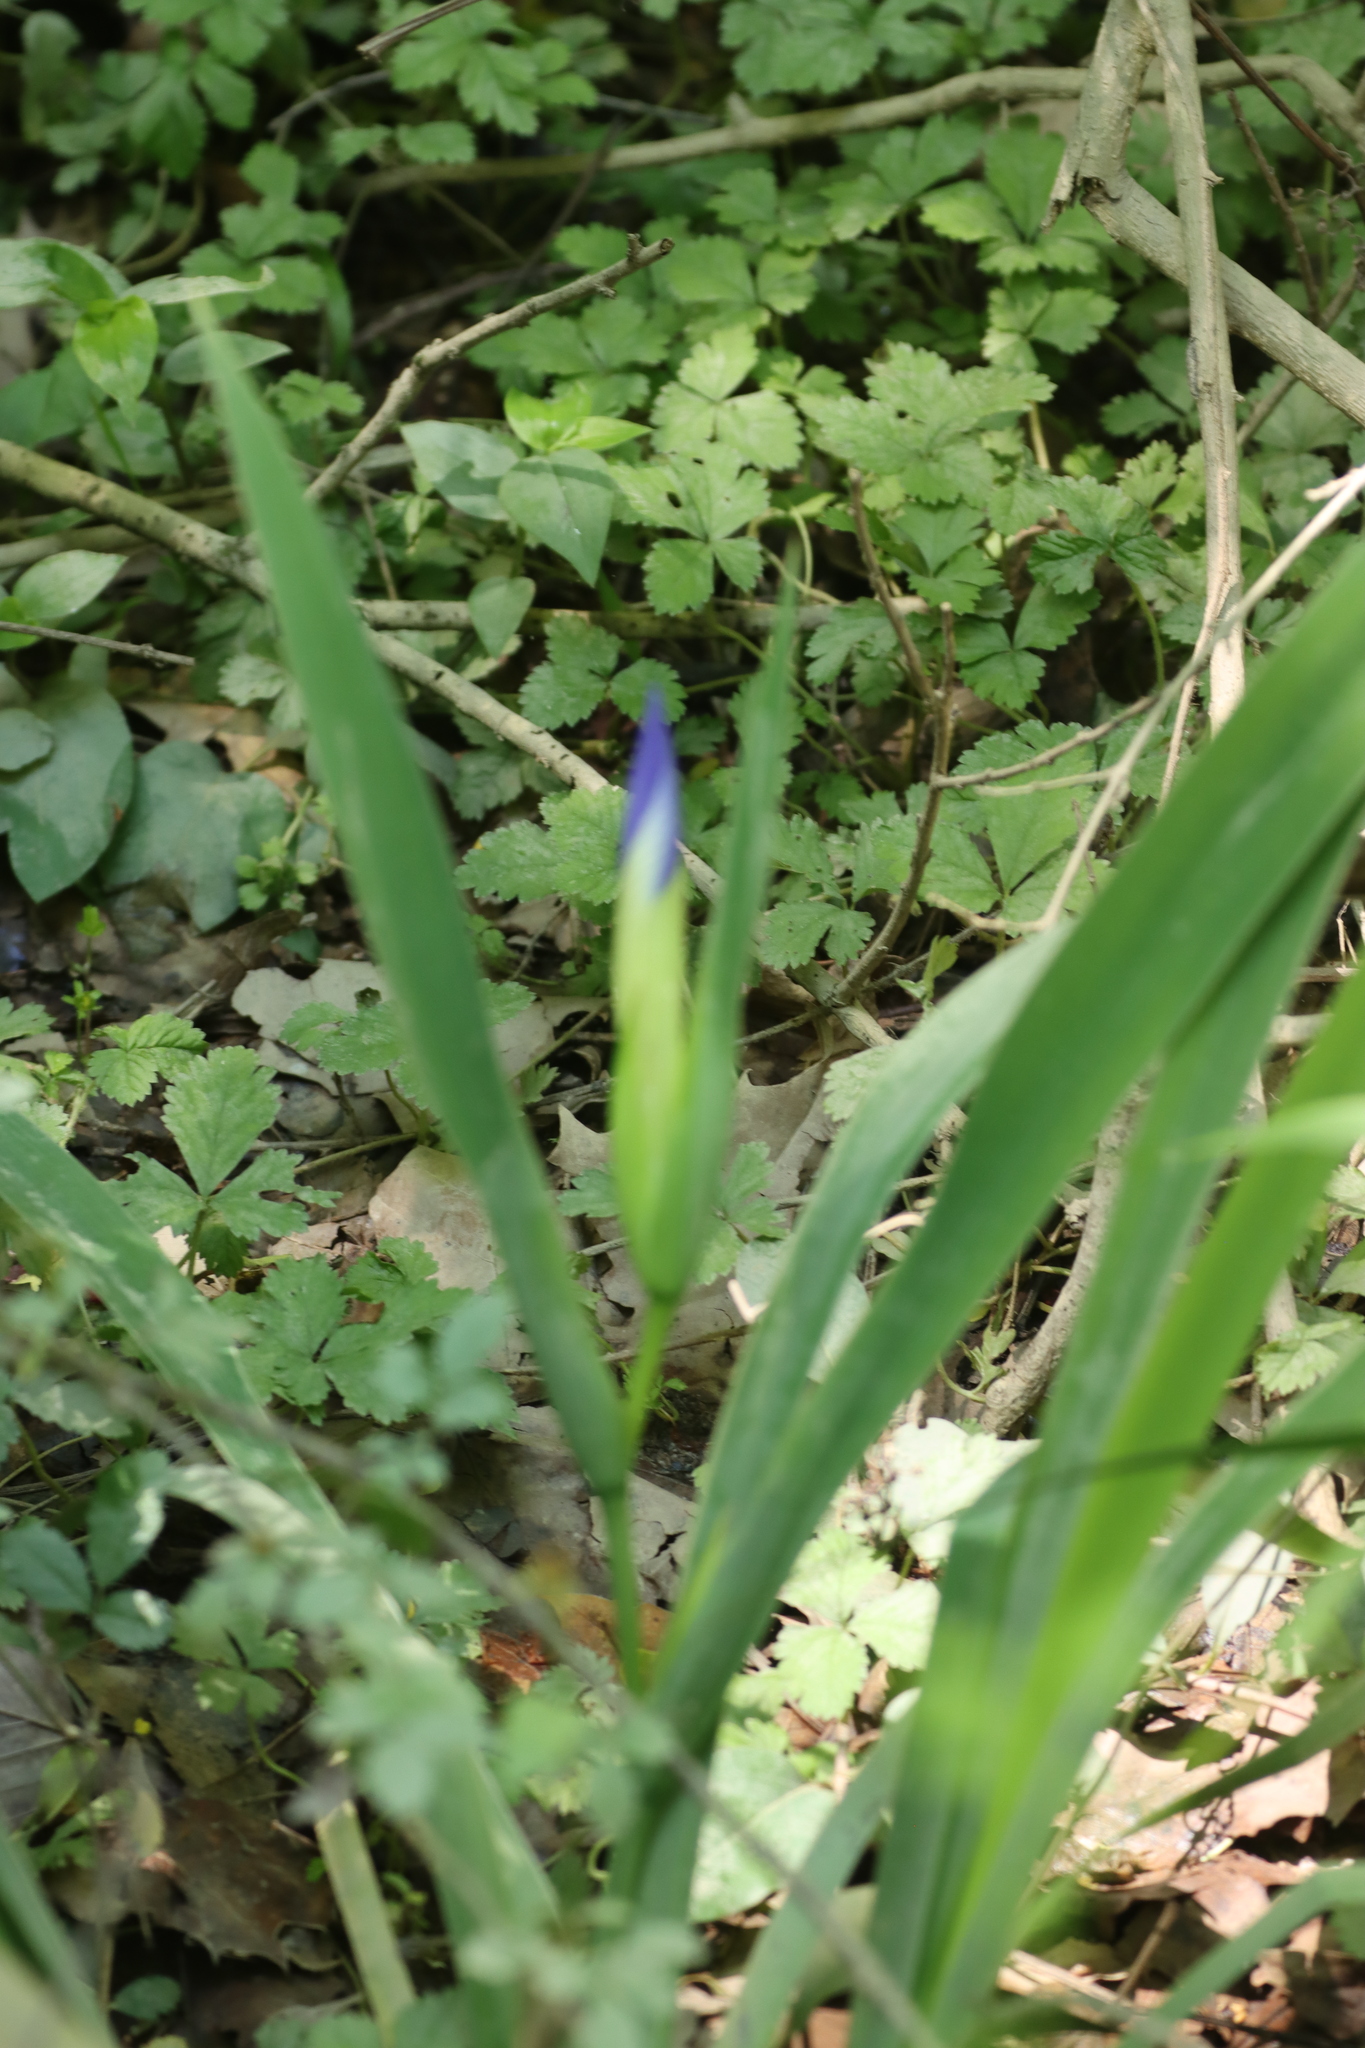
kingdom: Plantae
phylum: Tracheophyta
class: Liliopsida
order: Asparagales
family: Iridaceae
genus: Iris
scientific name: Iris brevicaulis
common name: Zigzag iris
